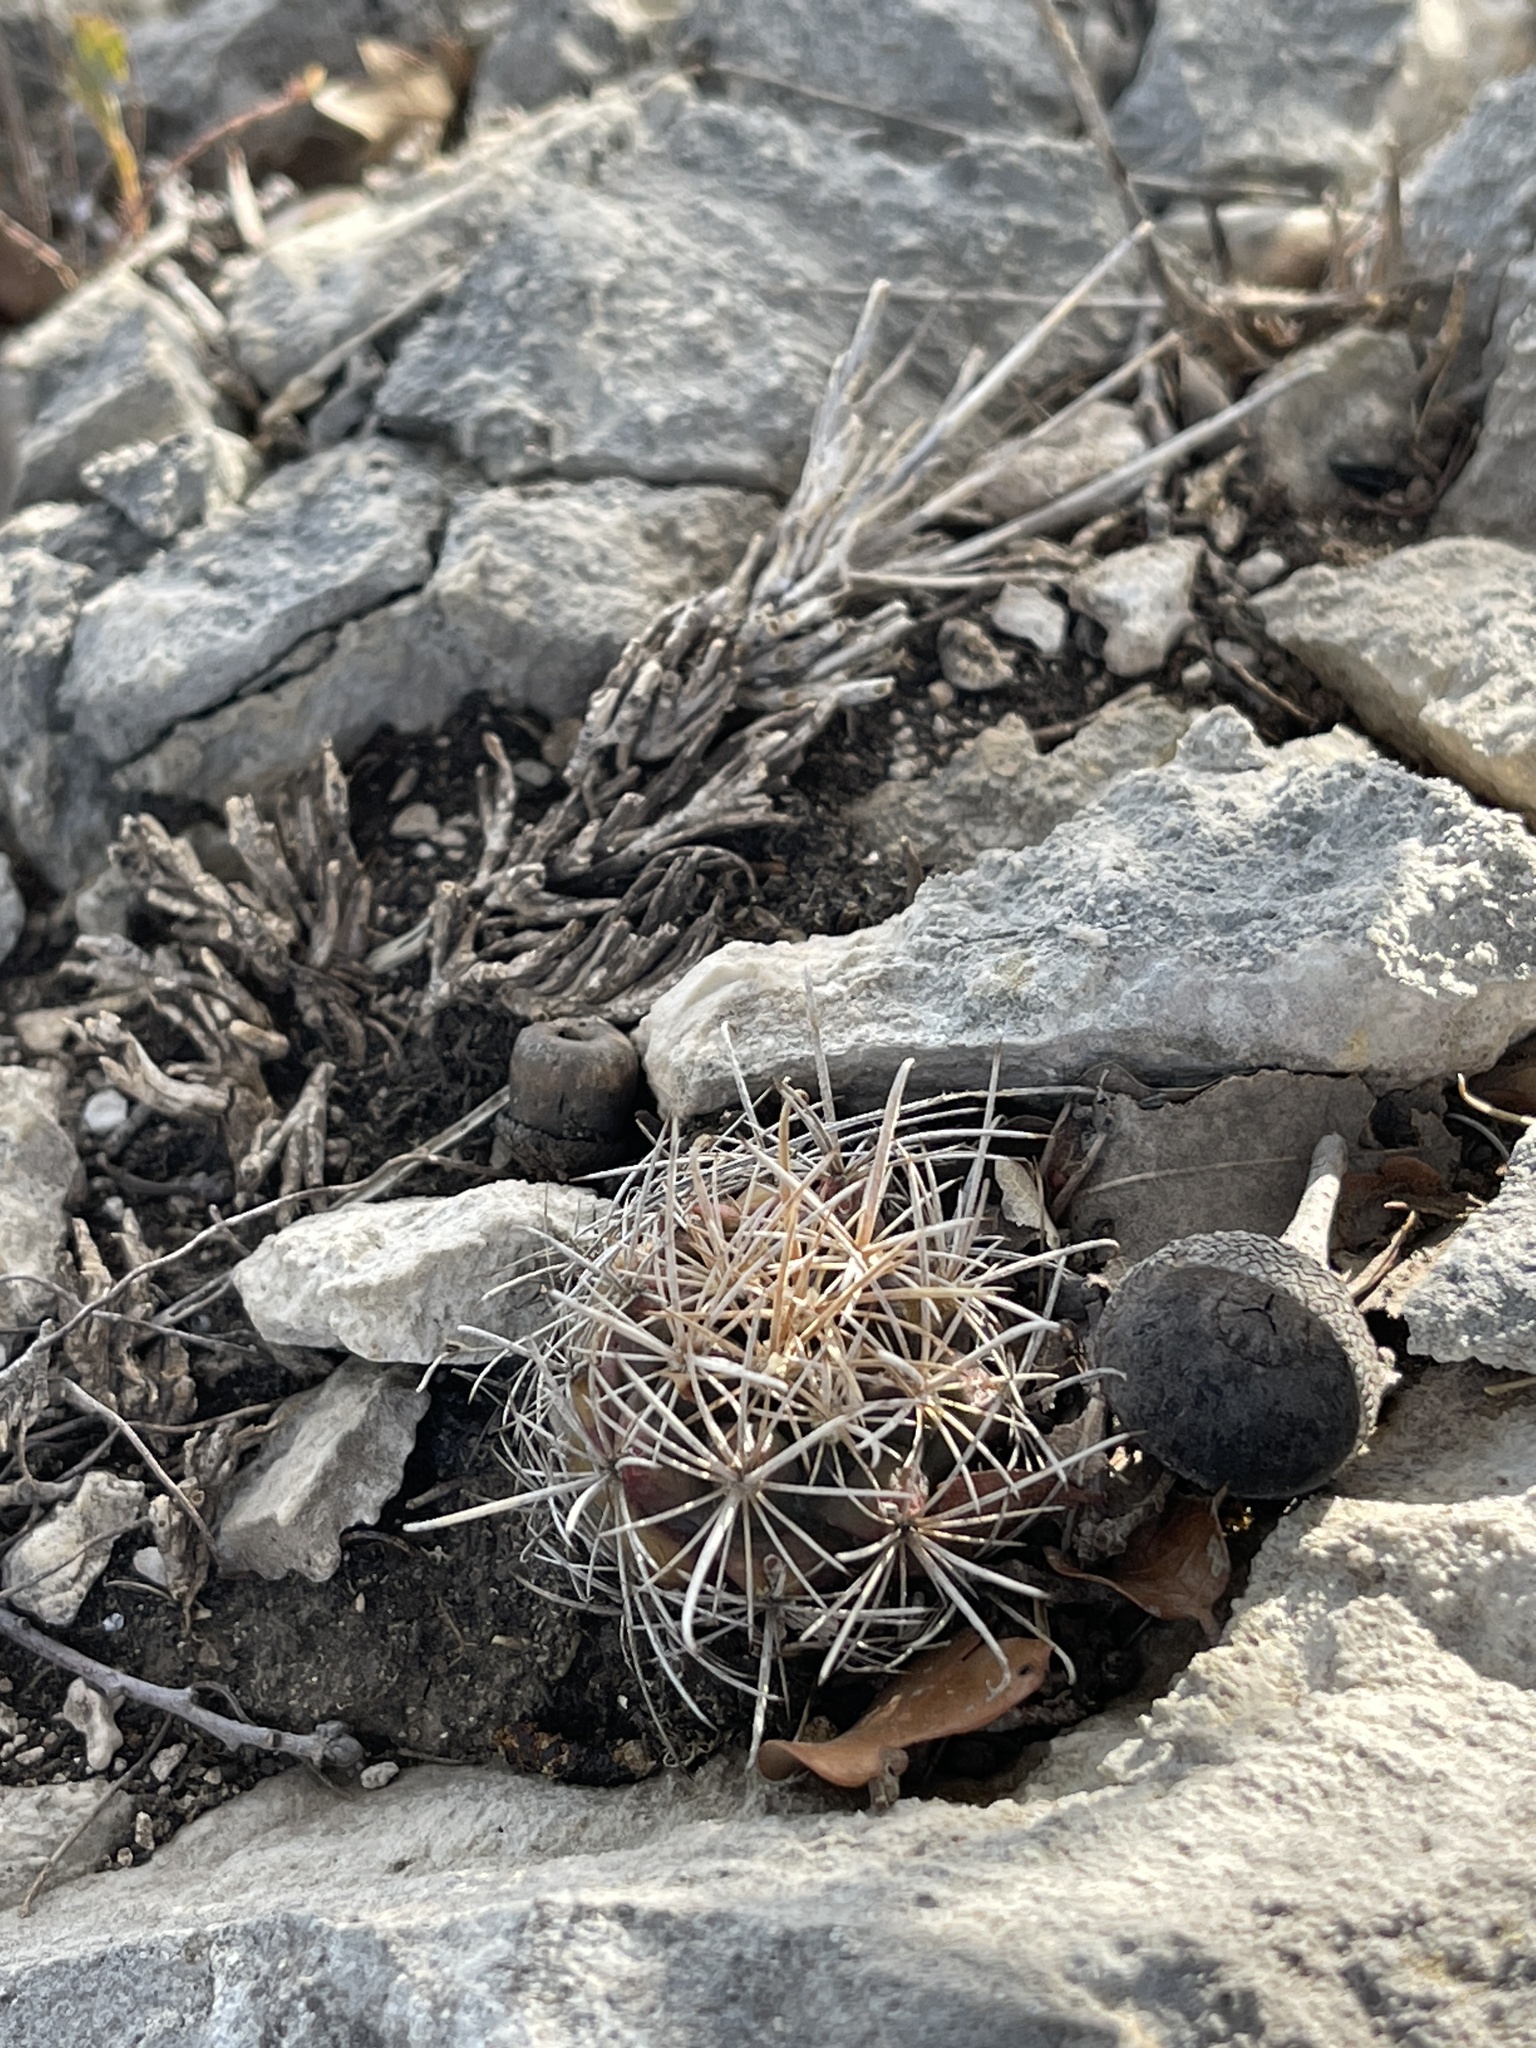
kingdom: Plantae
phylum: Tracheophyta
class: Magnoliopsida
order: Caryophyllales
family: Cactaceae
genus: Sclerocactus
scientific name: Sclerocactus brevihamatus
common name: Engelmann's fishhook cactus
